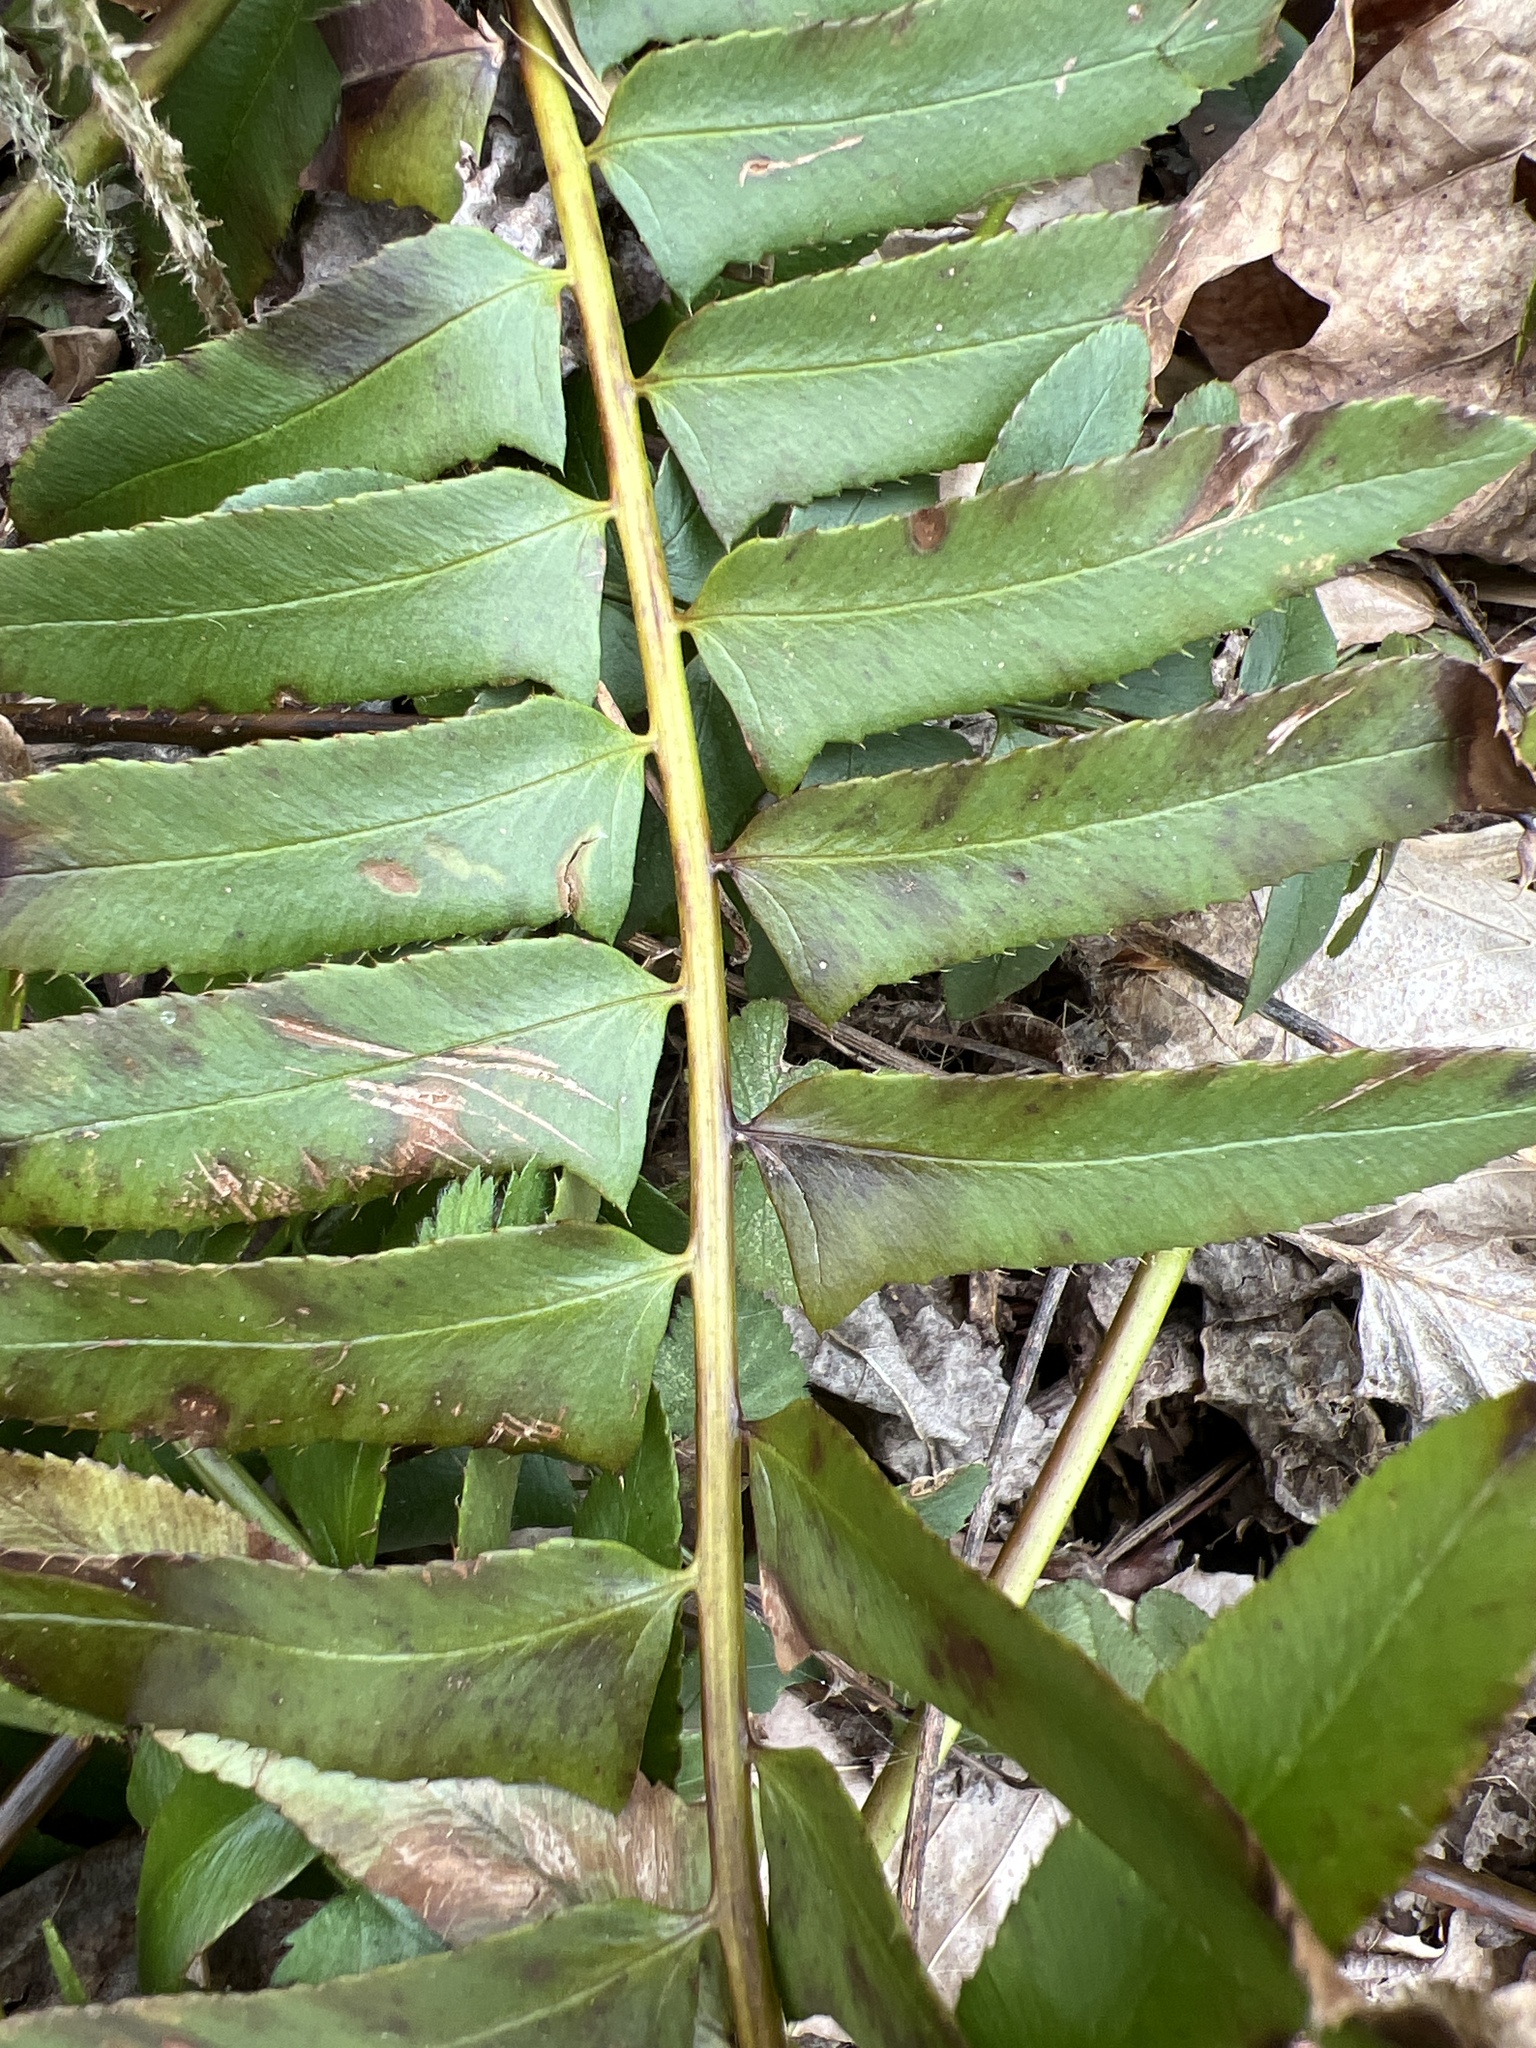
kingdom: Plantae
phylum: Tracheophyta
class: Polypodiopsida
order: Polypodiales
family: Dryopteridaceae
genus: Polystichum
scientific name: Polystichum acrostichoides
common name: Christmas fern
